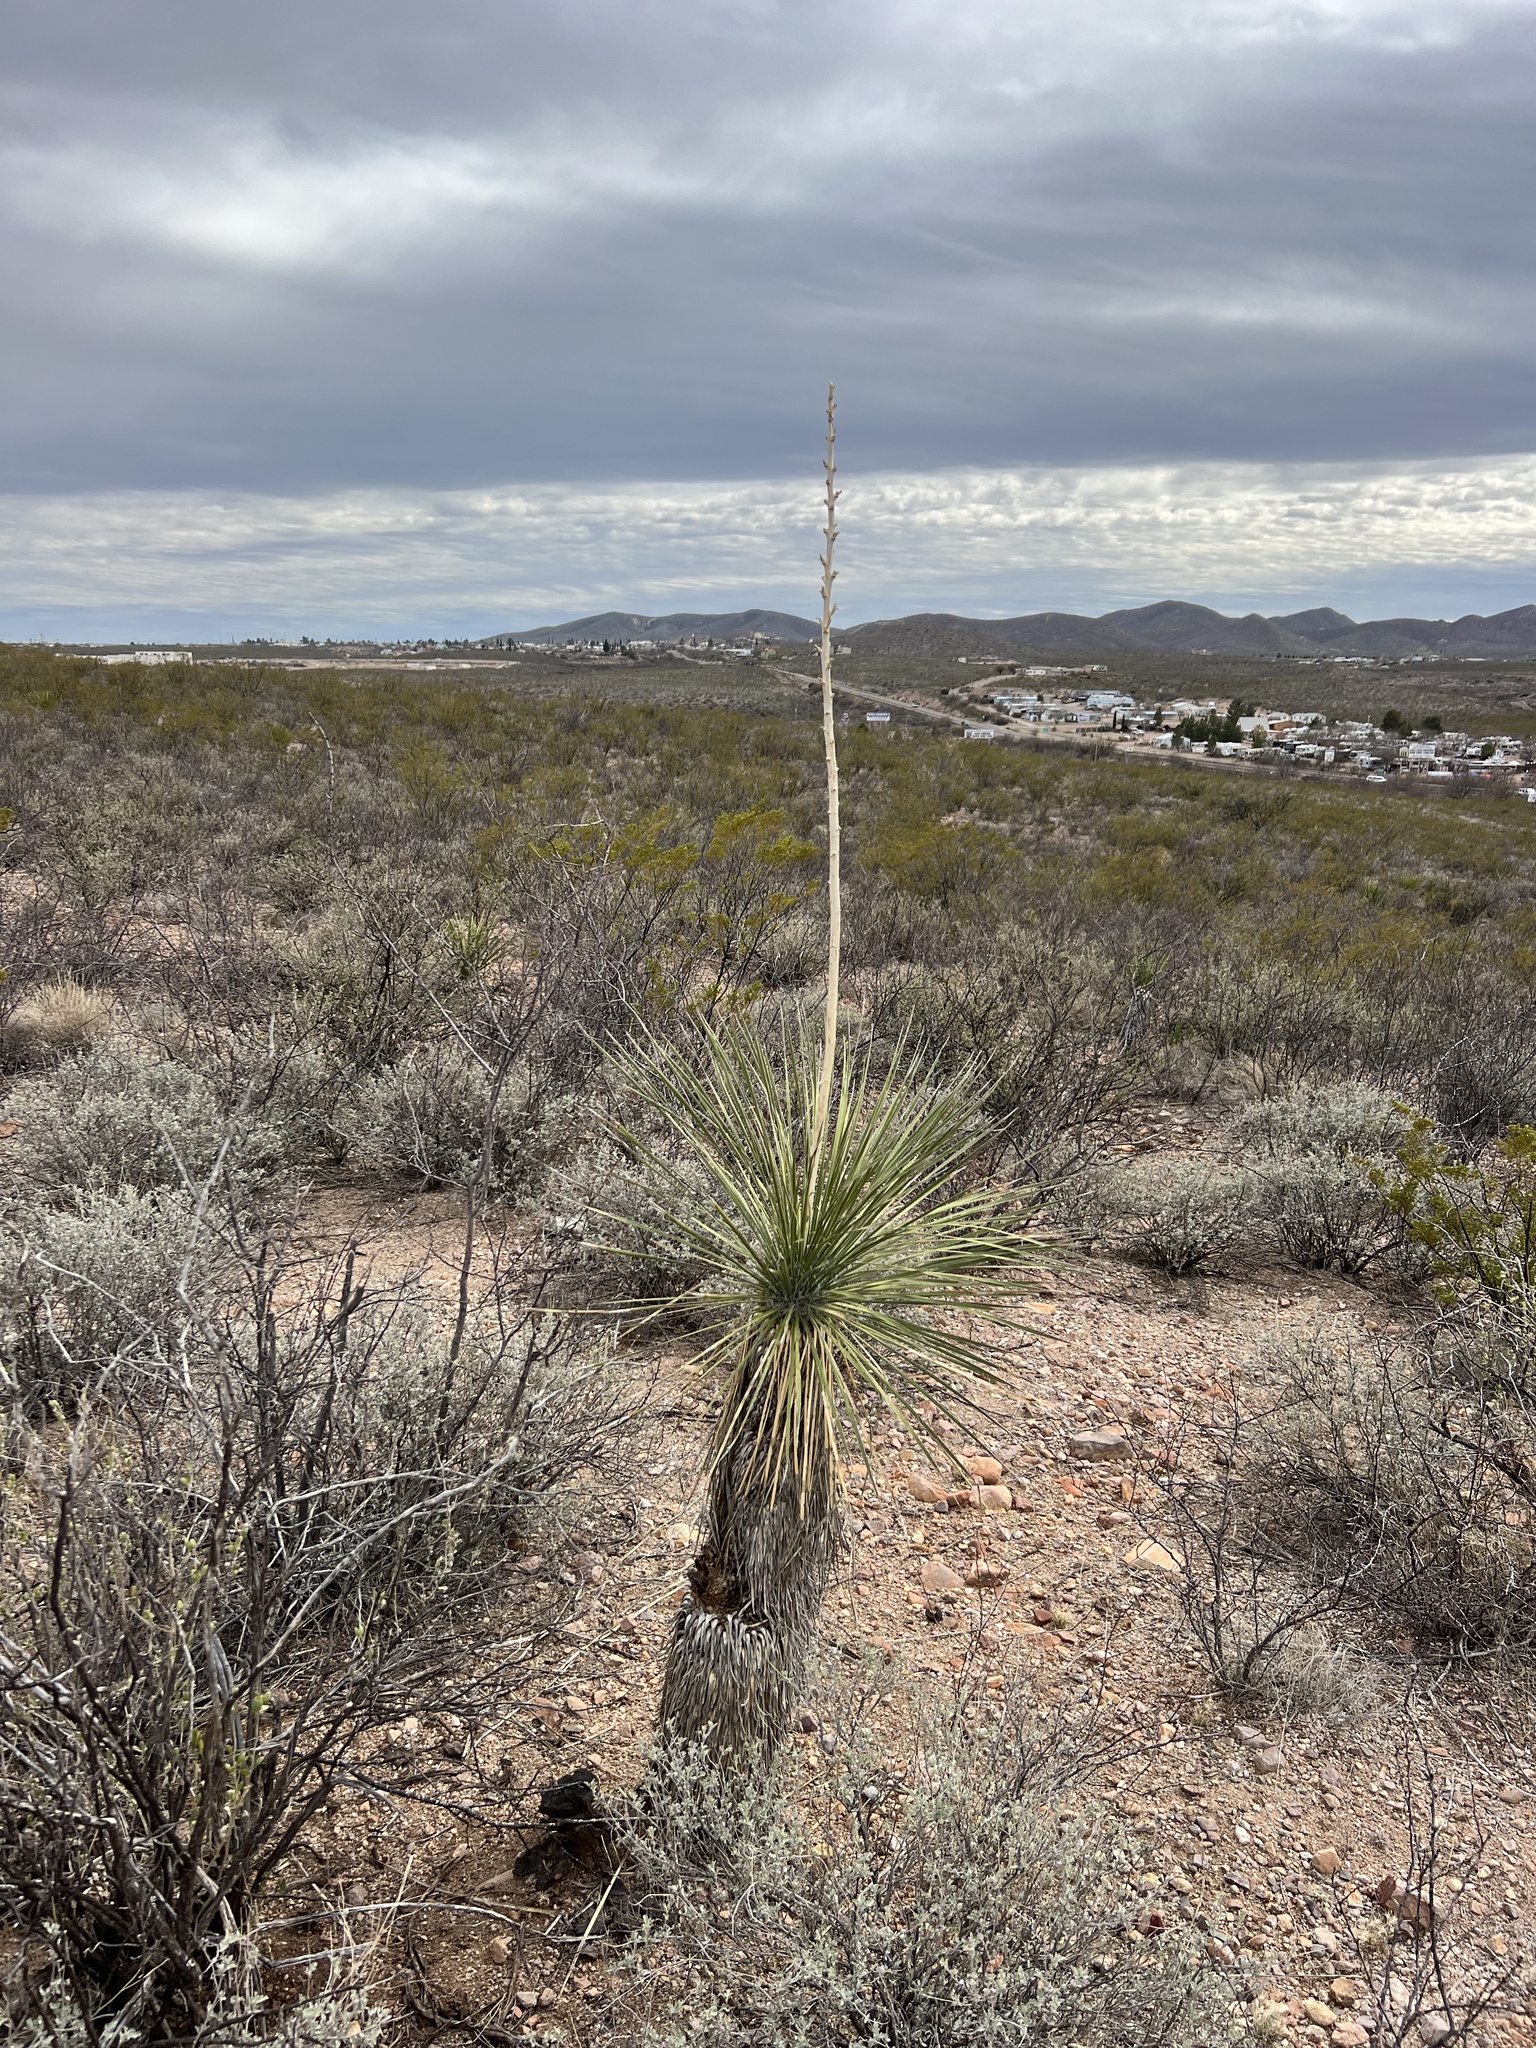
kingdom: Plantae
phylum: Tracheophyta
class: Liliopsida
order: Asparagales
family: Asparagaceae
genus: Yucca
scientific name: Yucca elata
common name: Palmella
